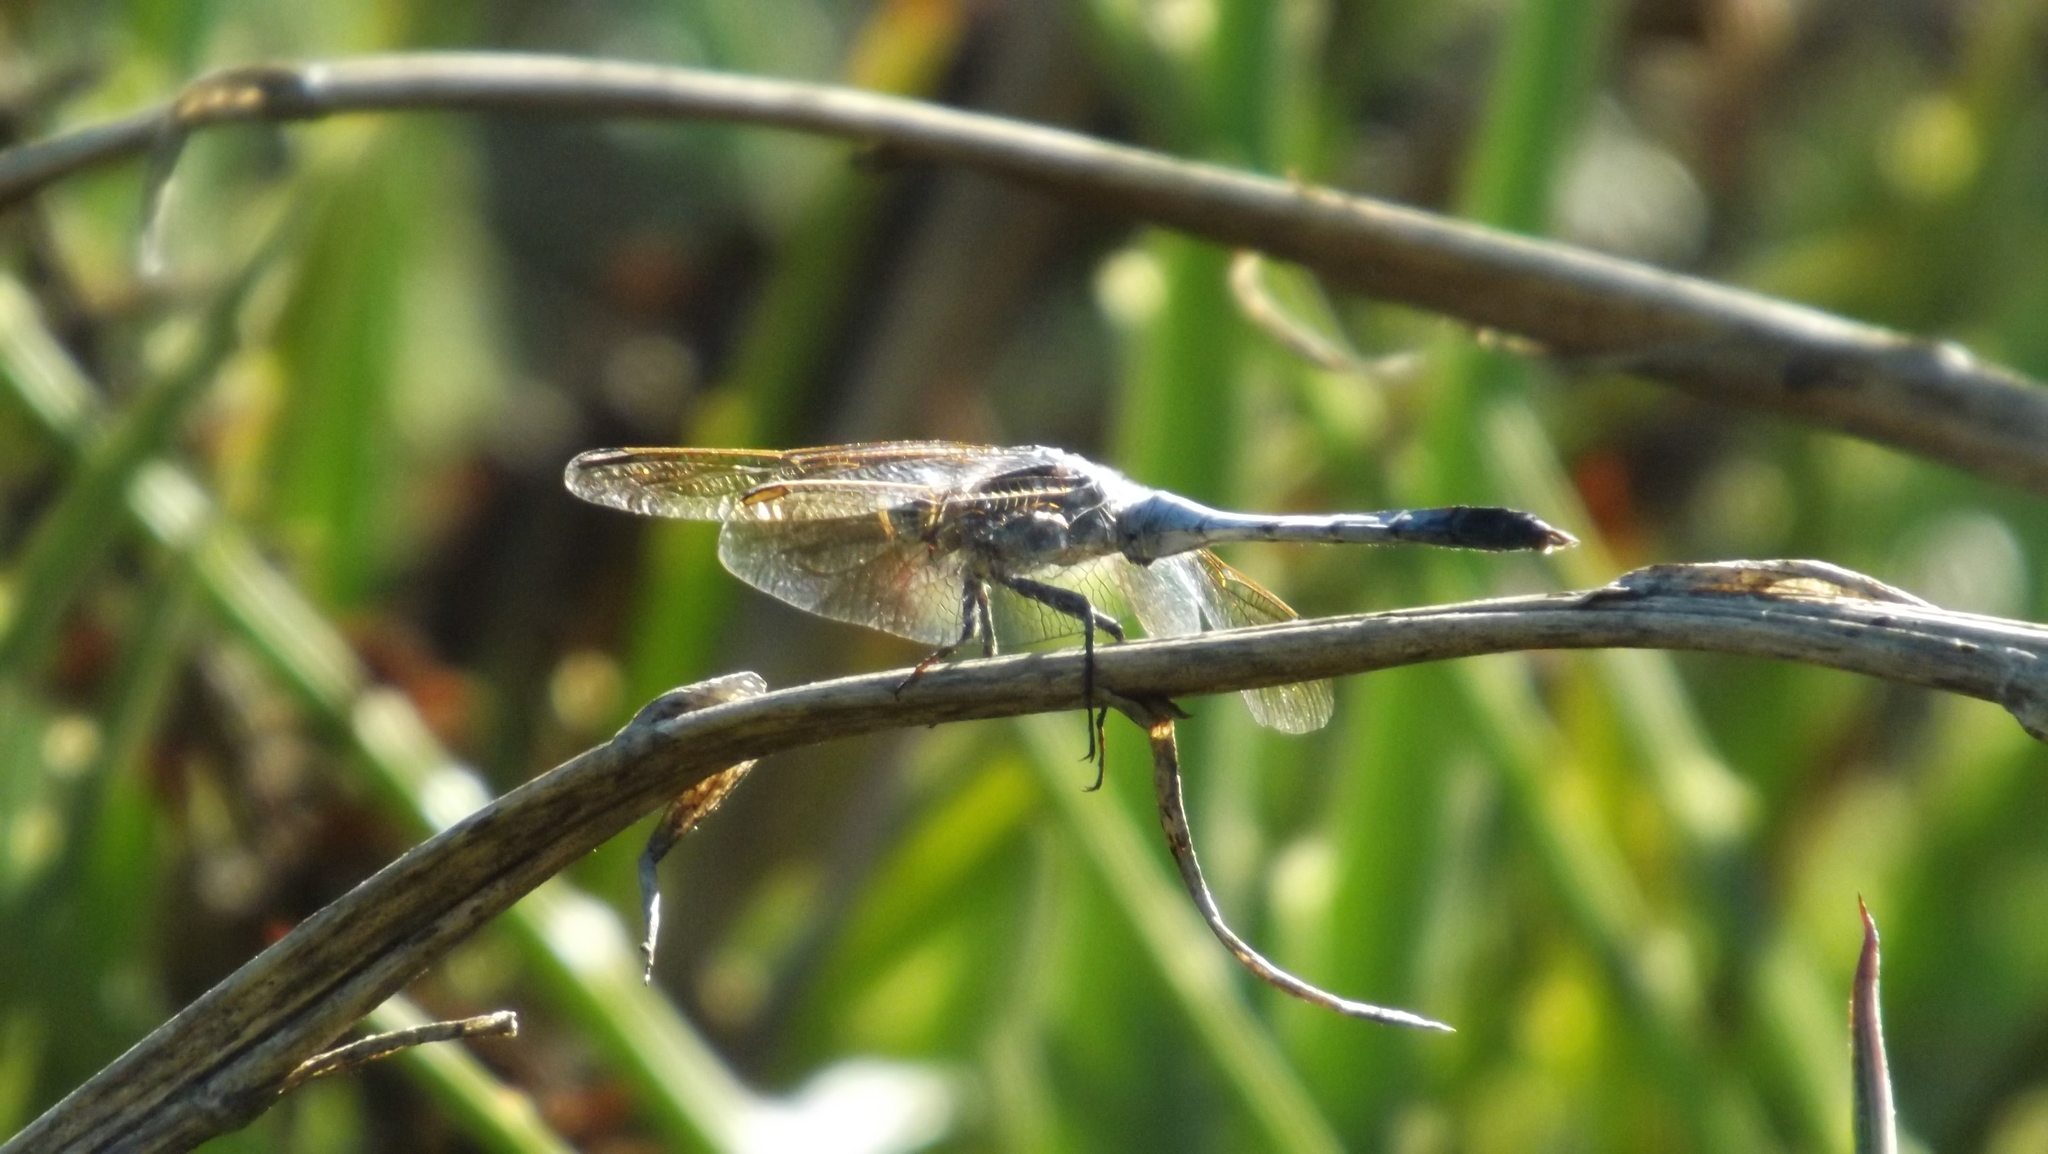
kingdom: Animalia
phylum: Arthropoda
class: Insecta
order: Odonata
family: Libellulidae
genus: Orthetrum
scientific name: Orthetrum caledonicum
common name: Blue skimmer
